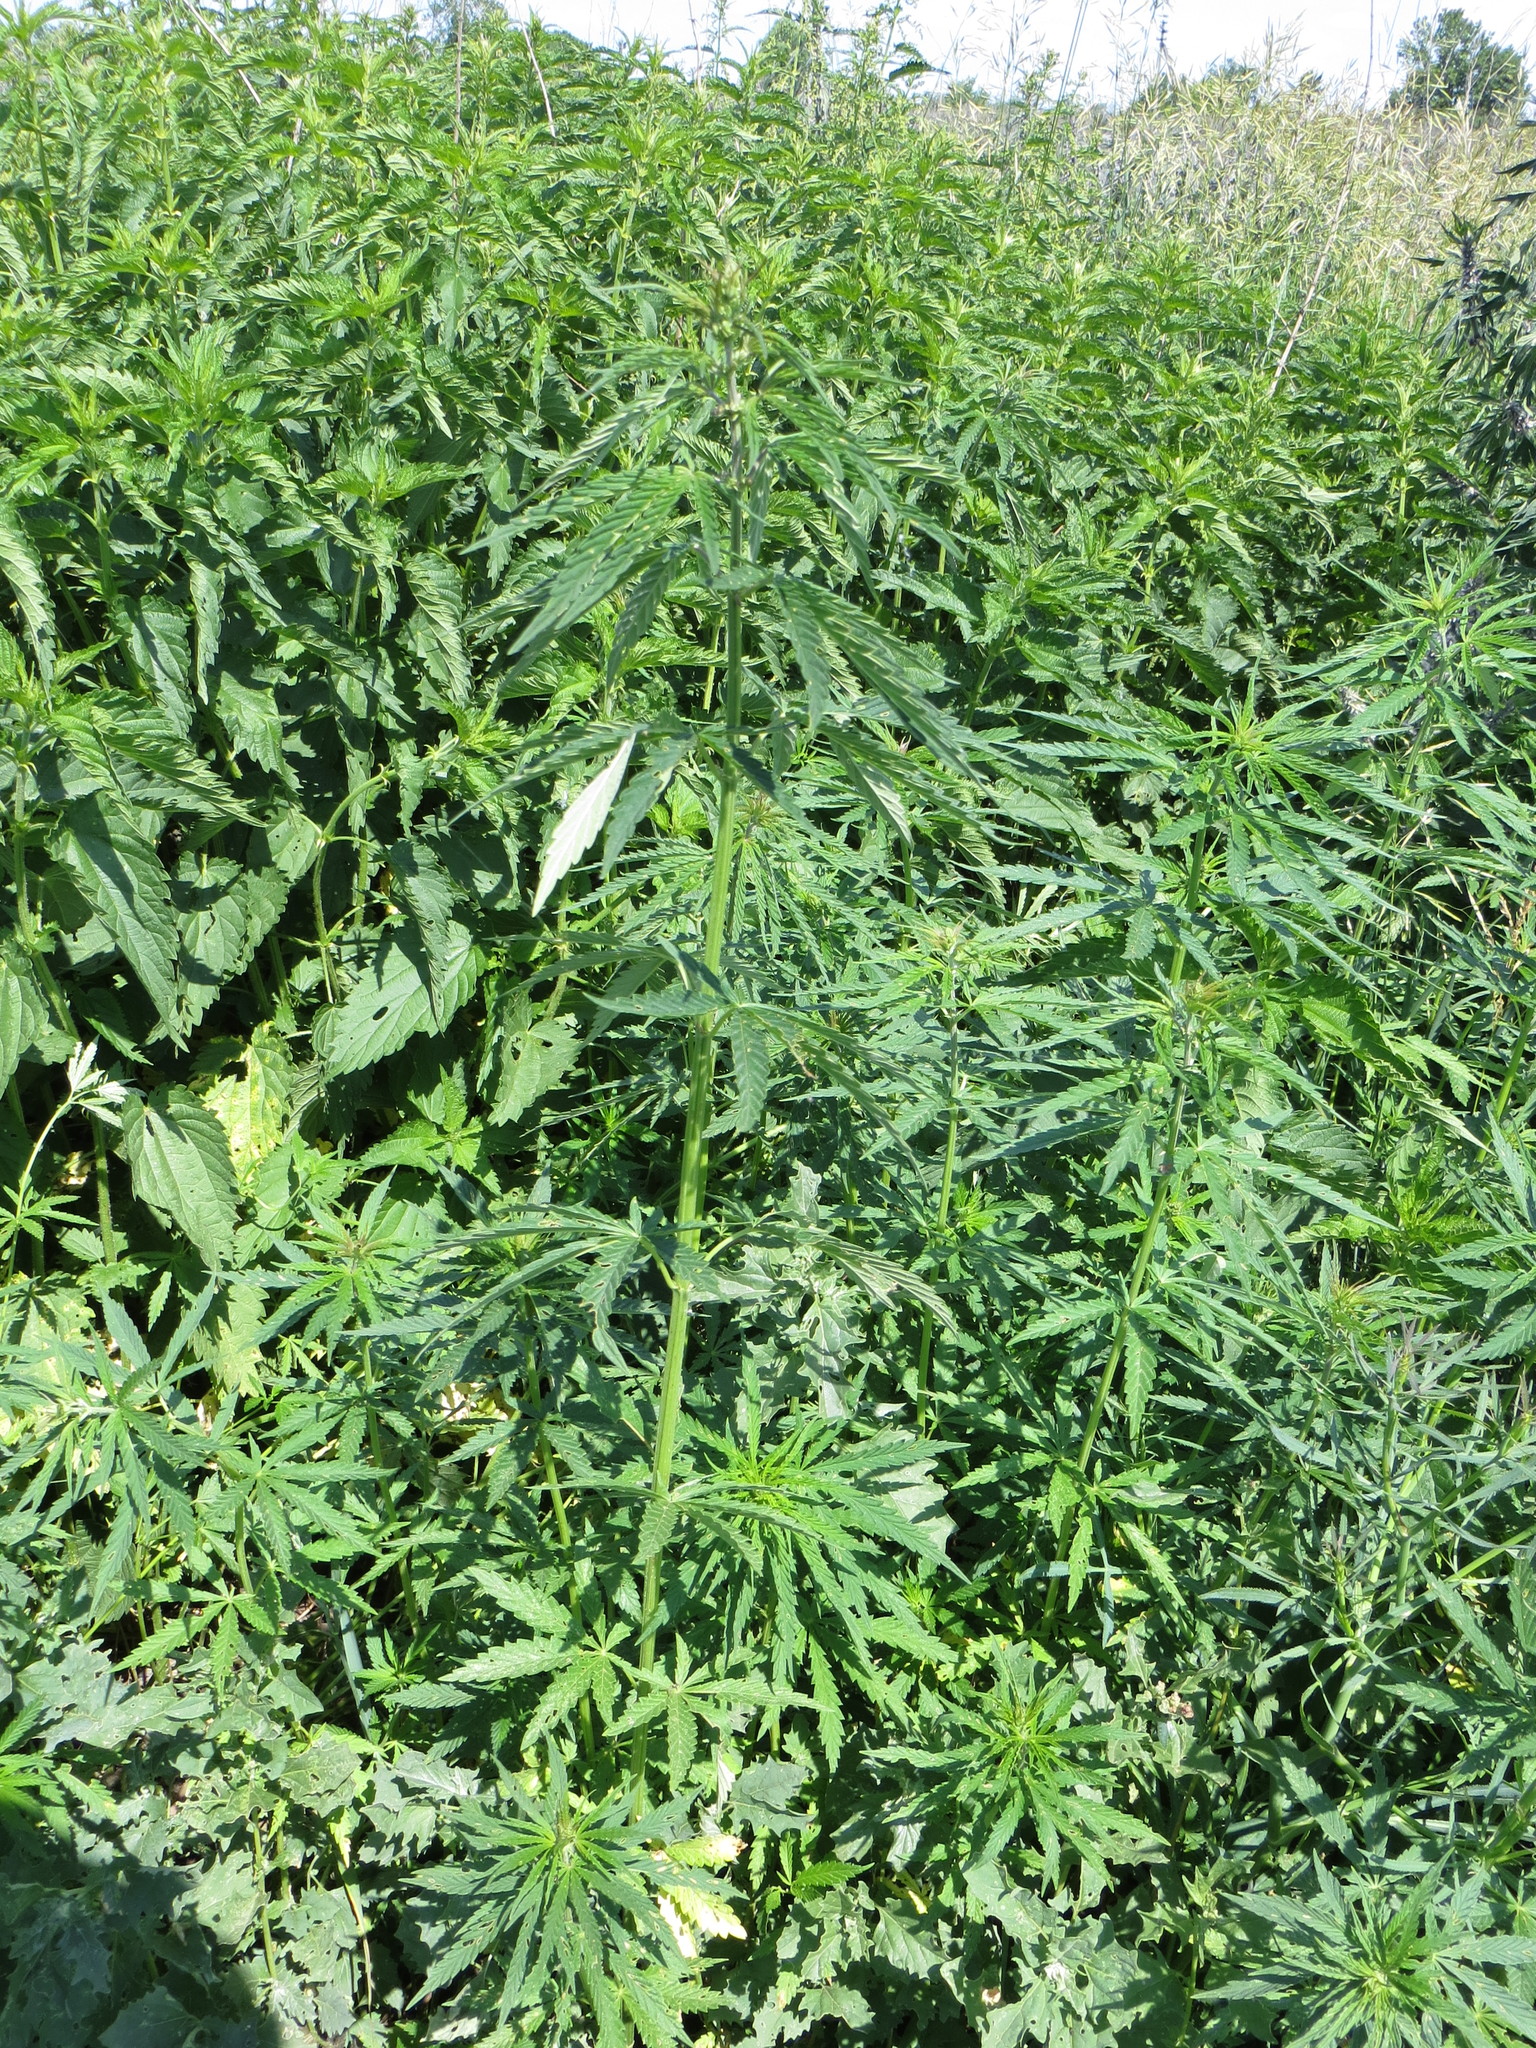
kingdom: Plantae
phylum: Tracheophyta
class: Magnoliopsida
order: Rosales
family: Cannabaceae
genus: Cannabis
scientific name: Cannabis sativa
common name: Hemp
